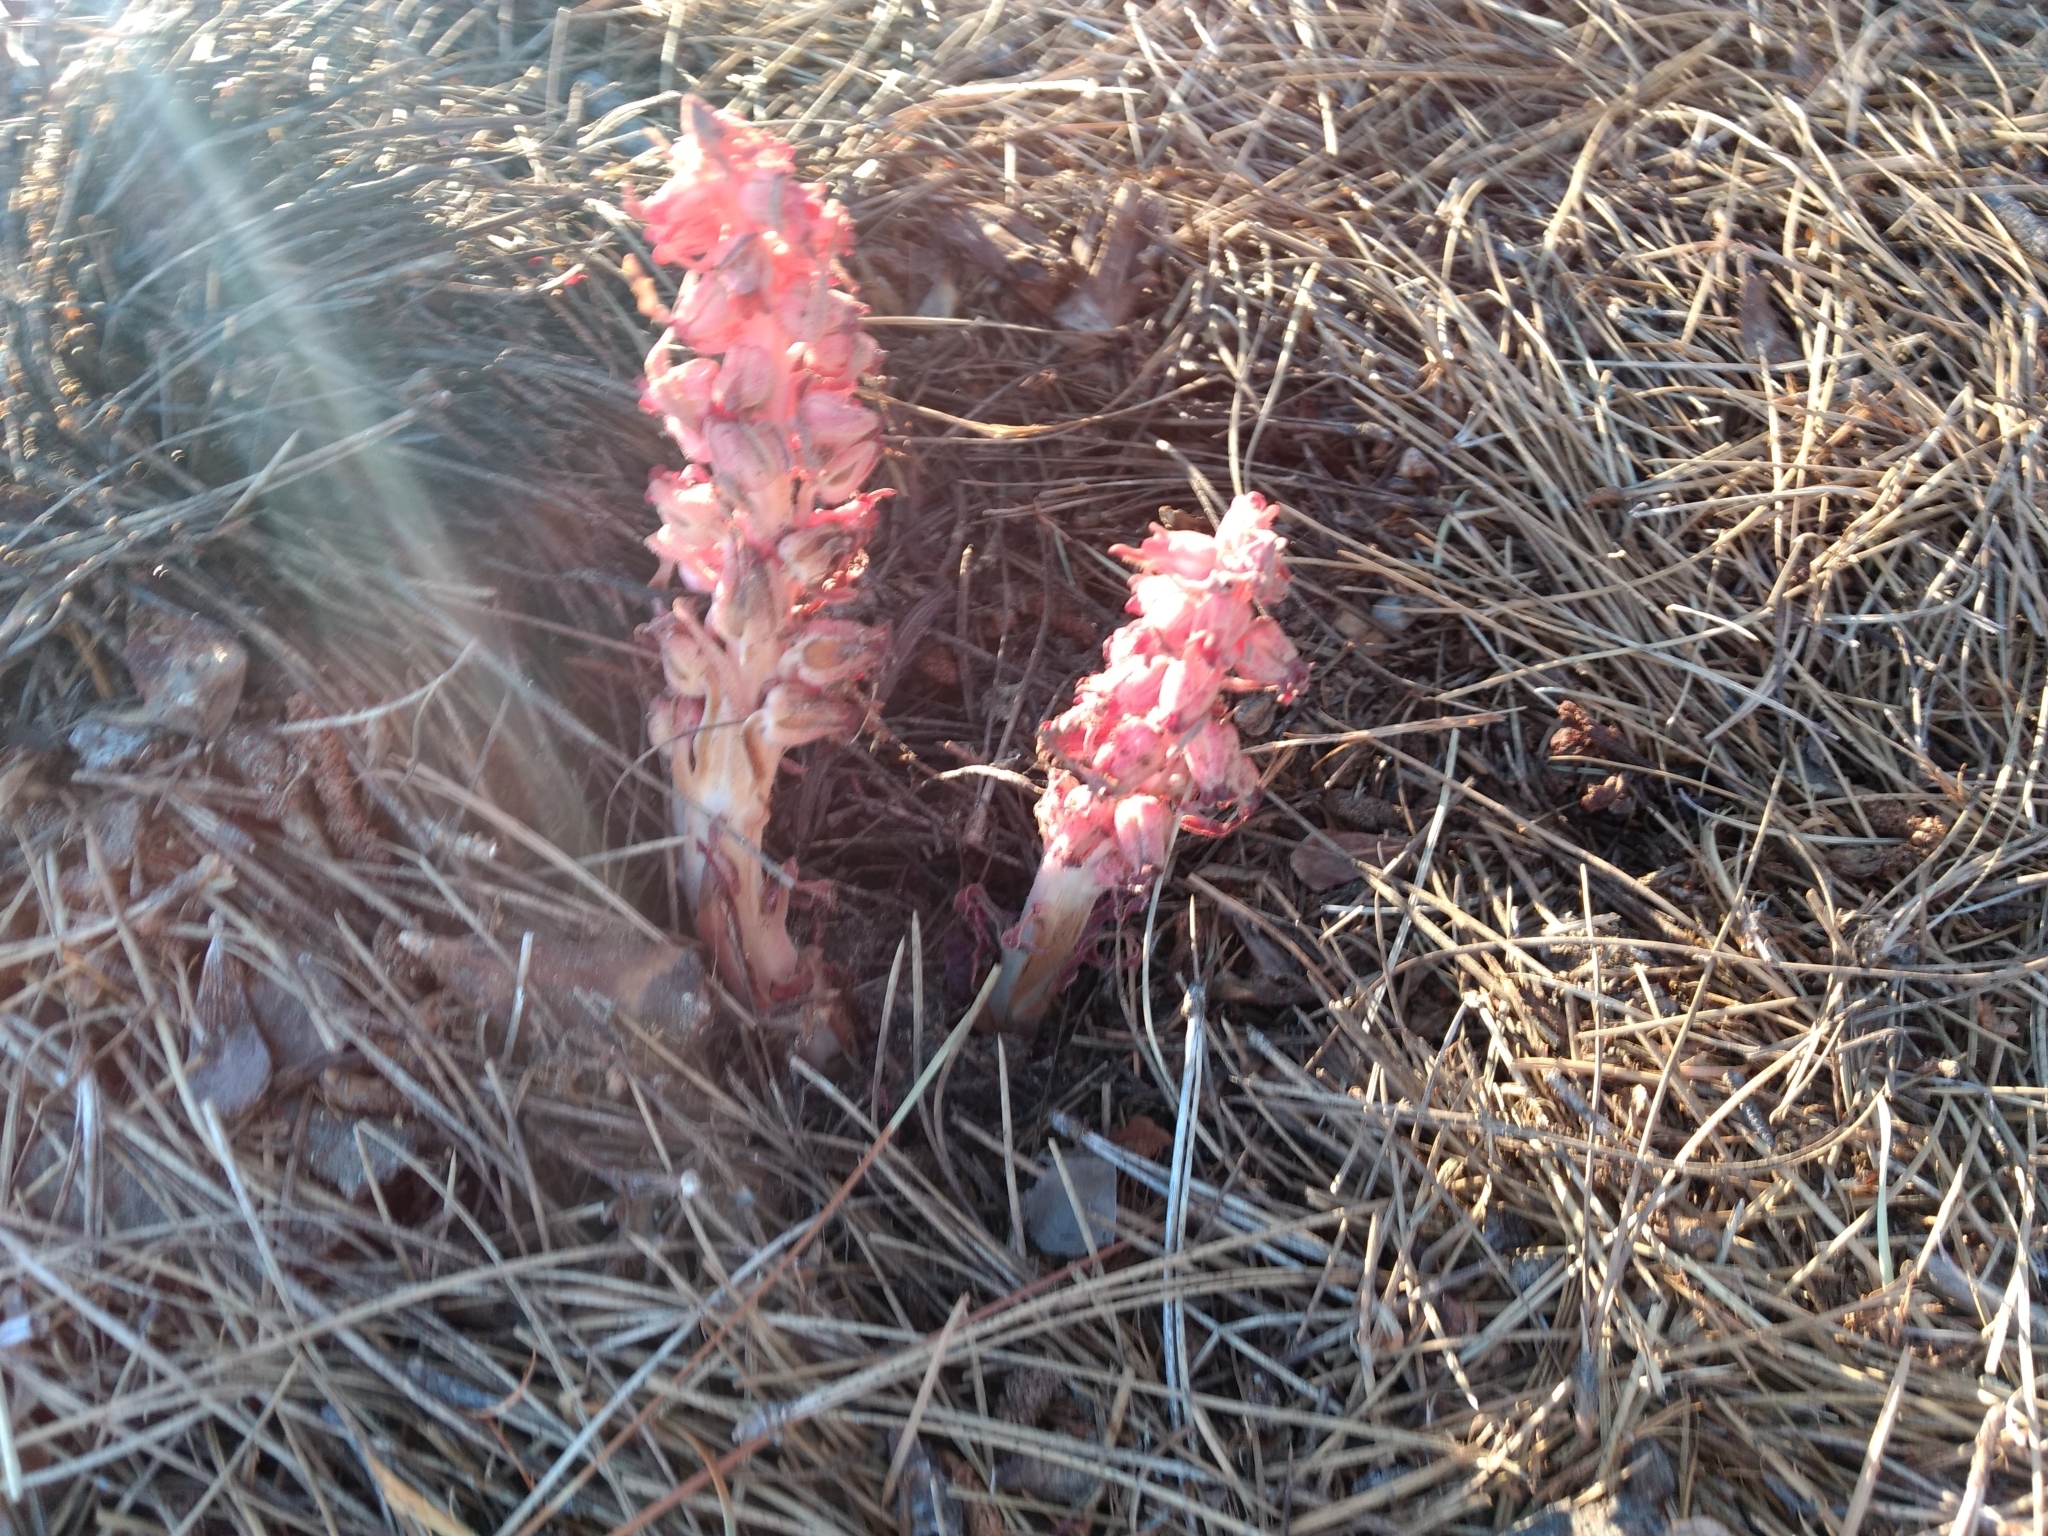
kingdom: Plantae
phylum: Tracheophyta
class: Magnoliopsida
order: Ericales
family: Ericaceae
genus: Sarcodes
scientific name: Sarcodes sanguinea
